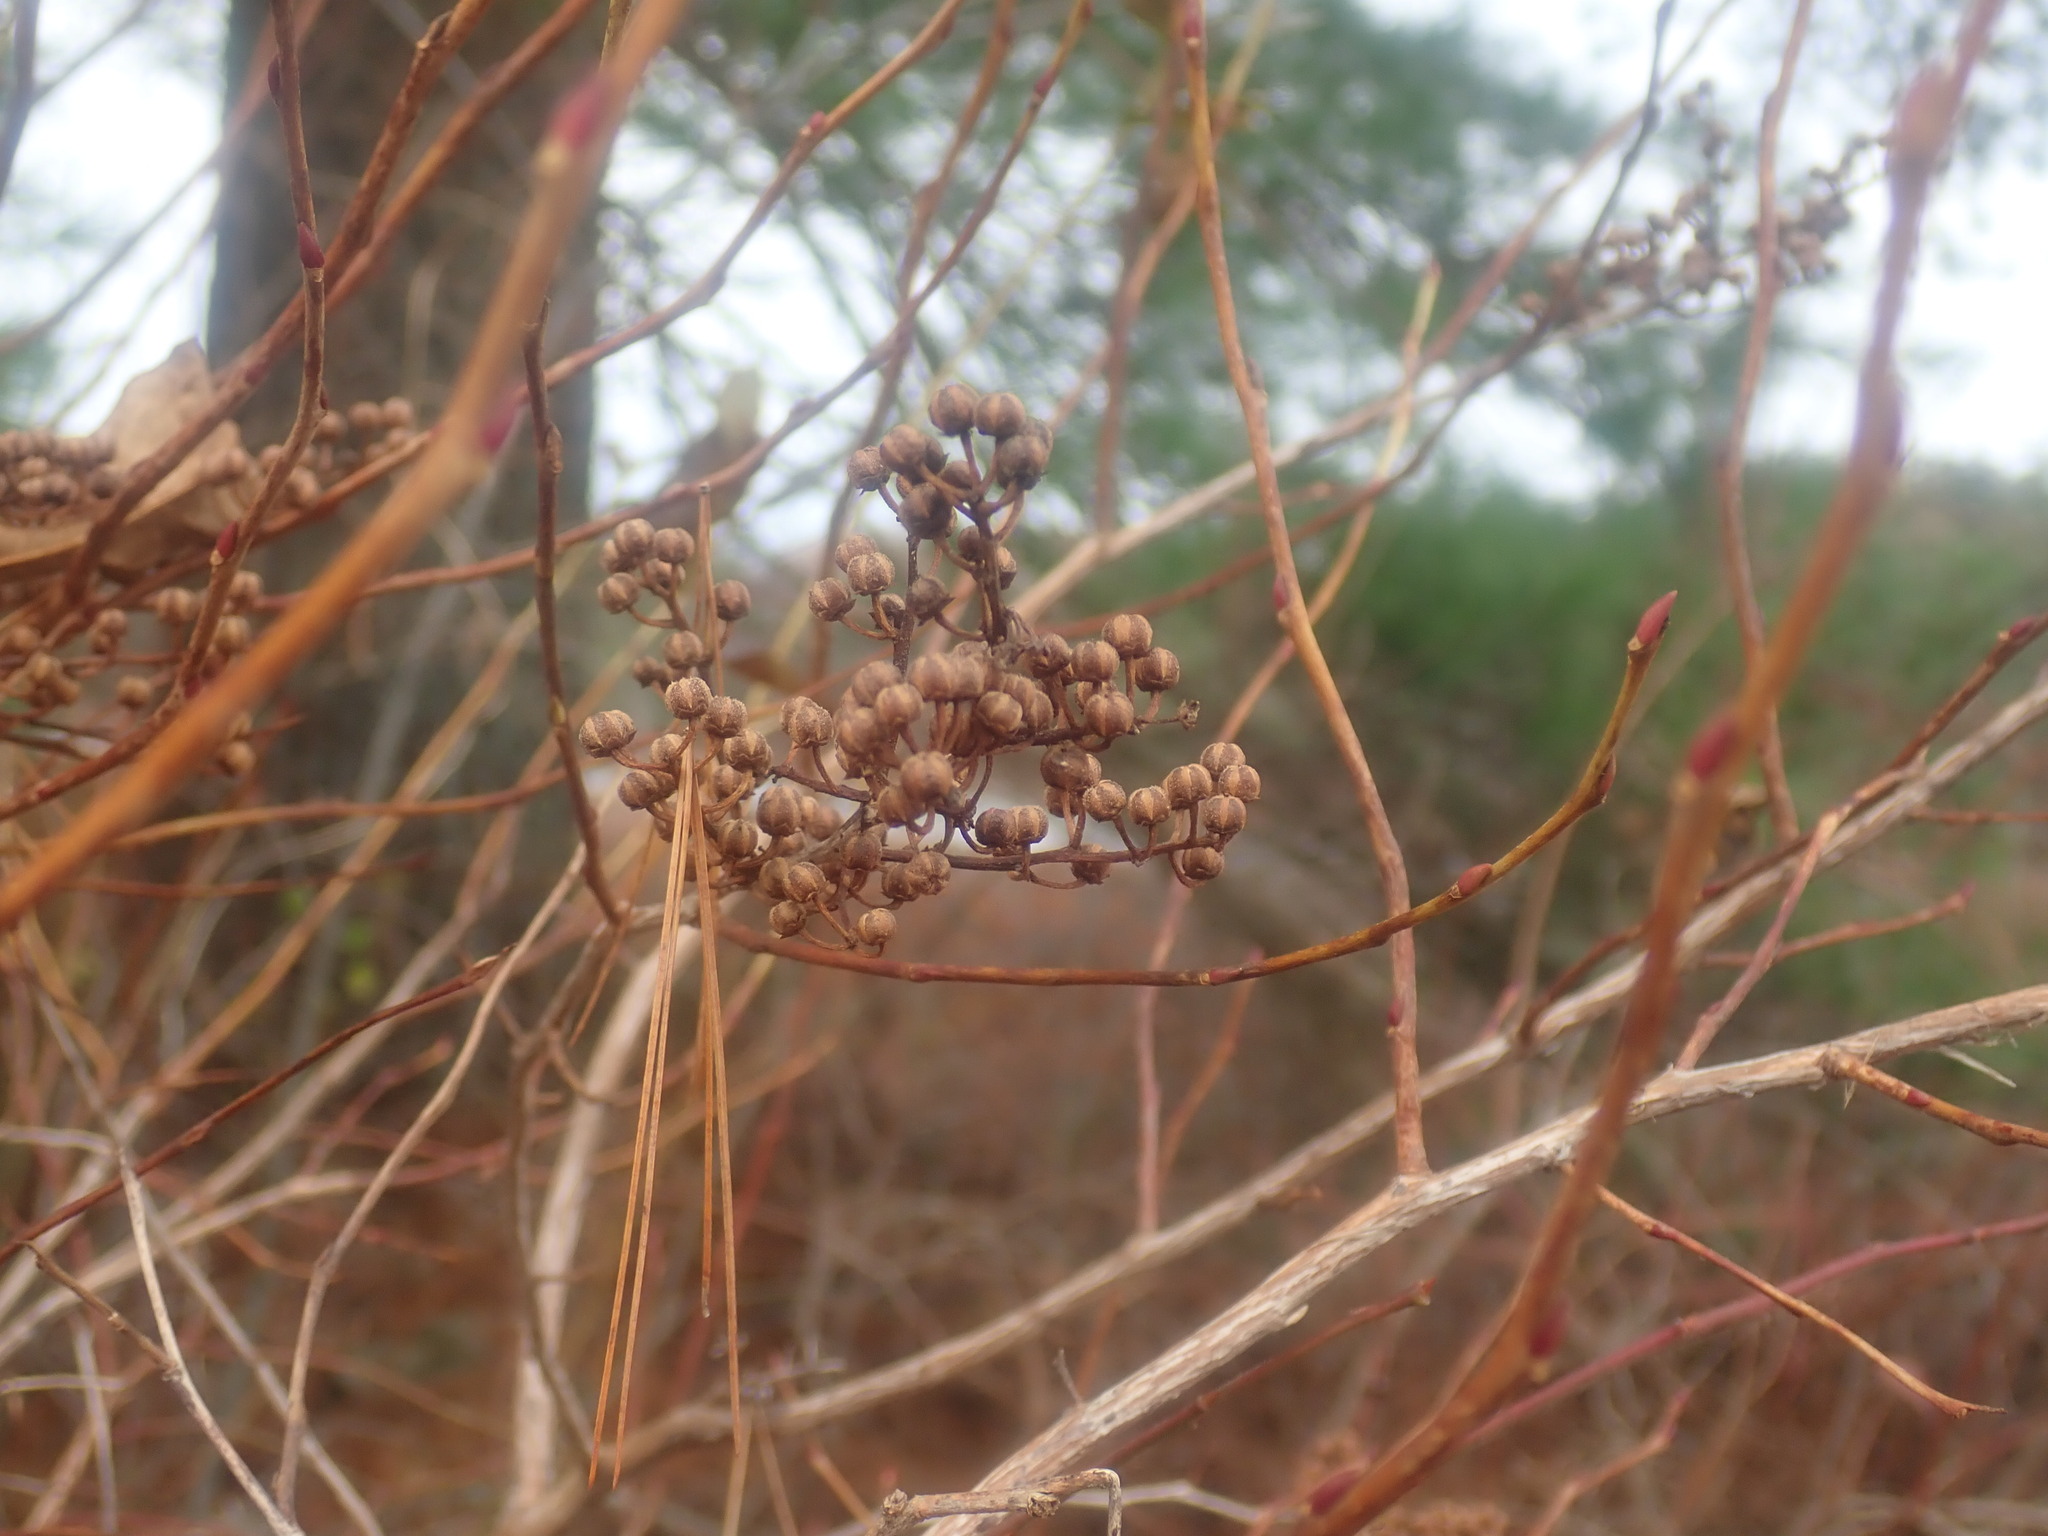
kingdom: Plantae
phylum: Tracheophyta
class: Magnoliopsida
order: Ericales
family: Ericaceae
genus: Lyonia
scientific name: Lyonia ligustrina
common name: Maleberry
